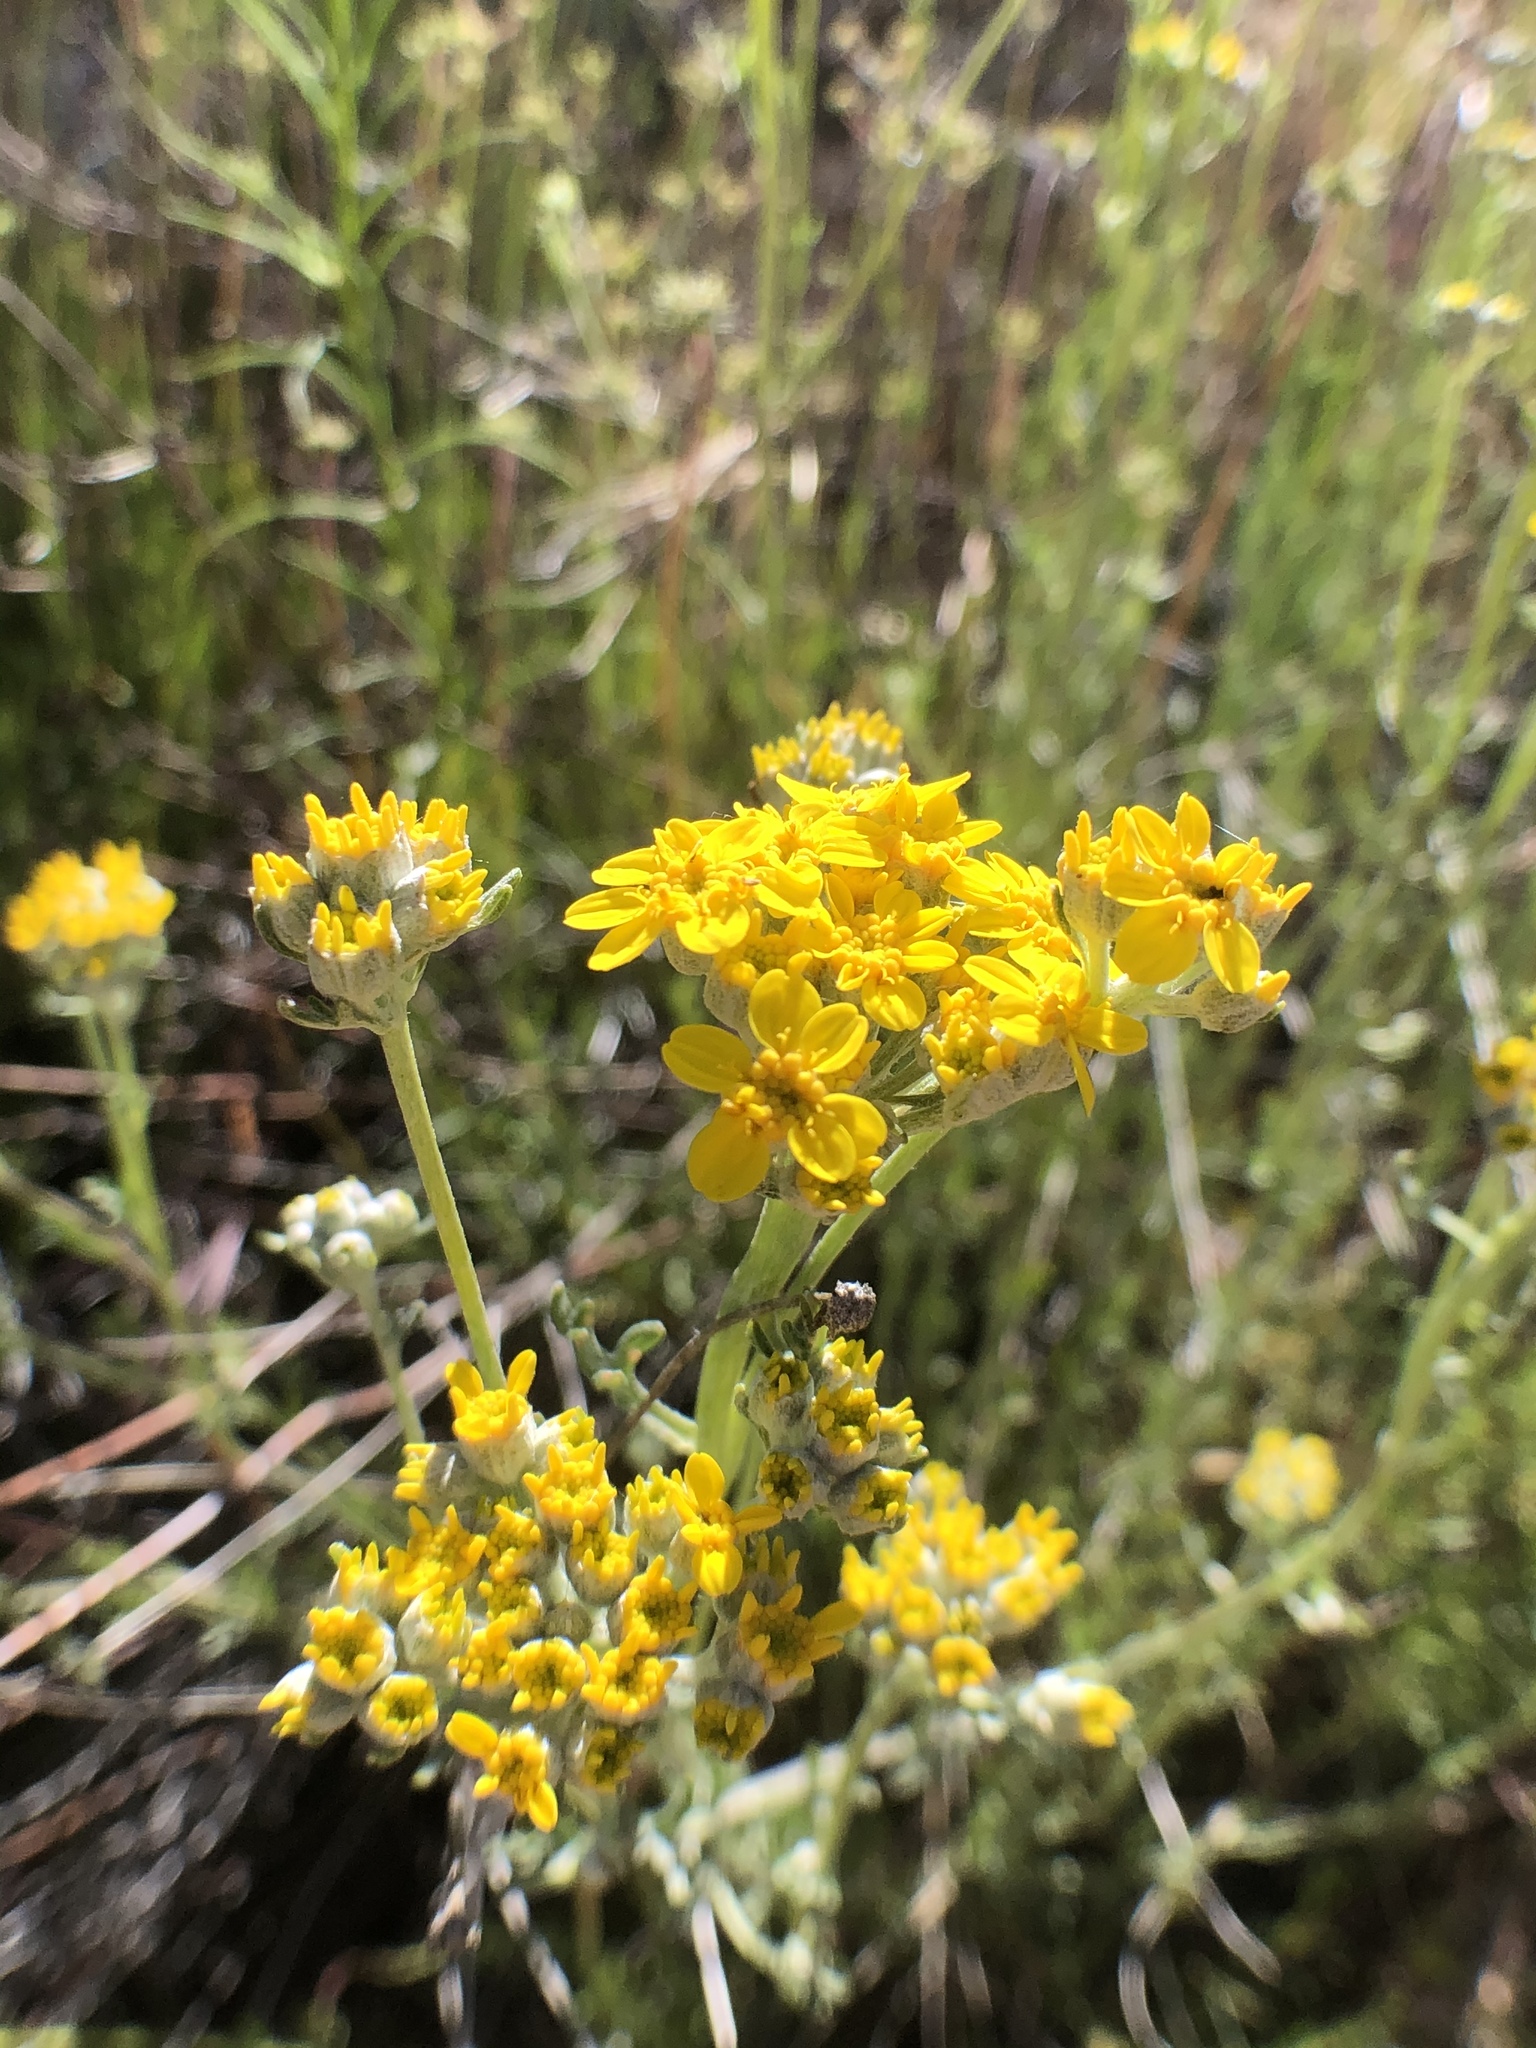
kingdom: Plantae
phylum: Tracheophyta
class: Magnoliopsida
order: Asterales
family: Asteraceae
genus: Eriophyllum
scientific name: Eriophyllum confertiflorum
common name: Golden-yarrow
